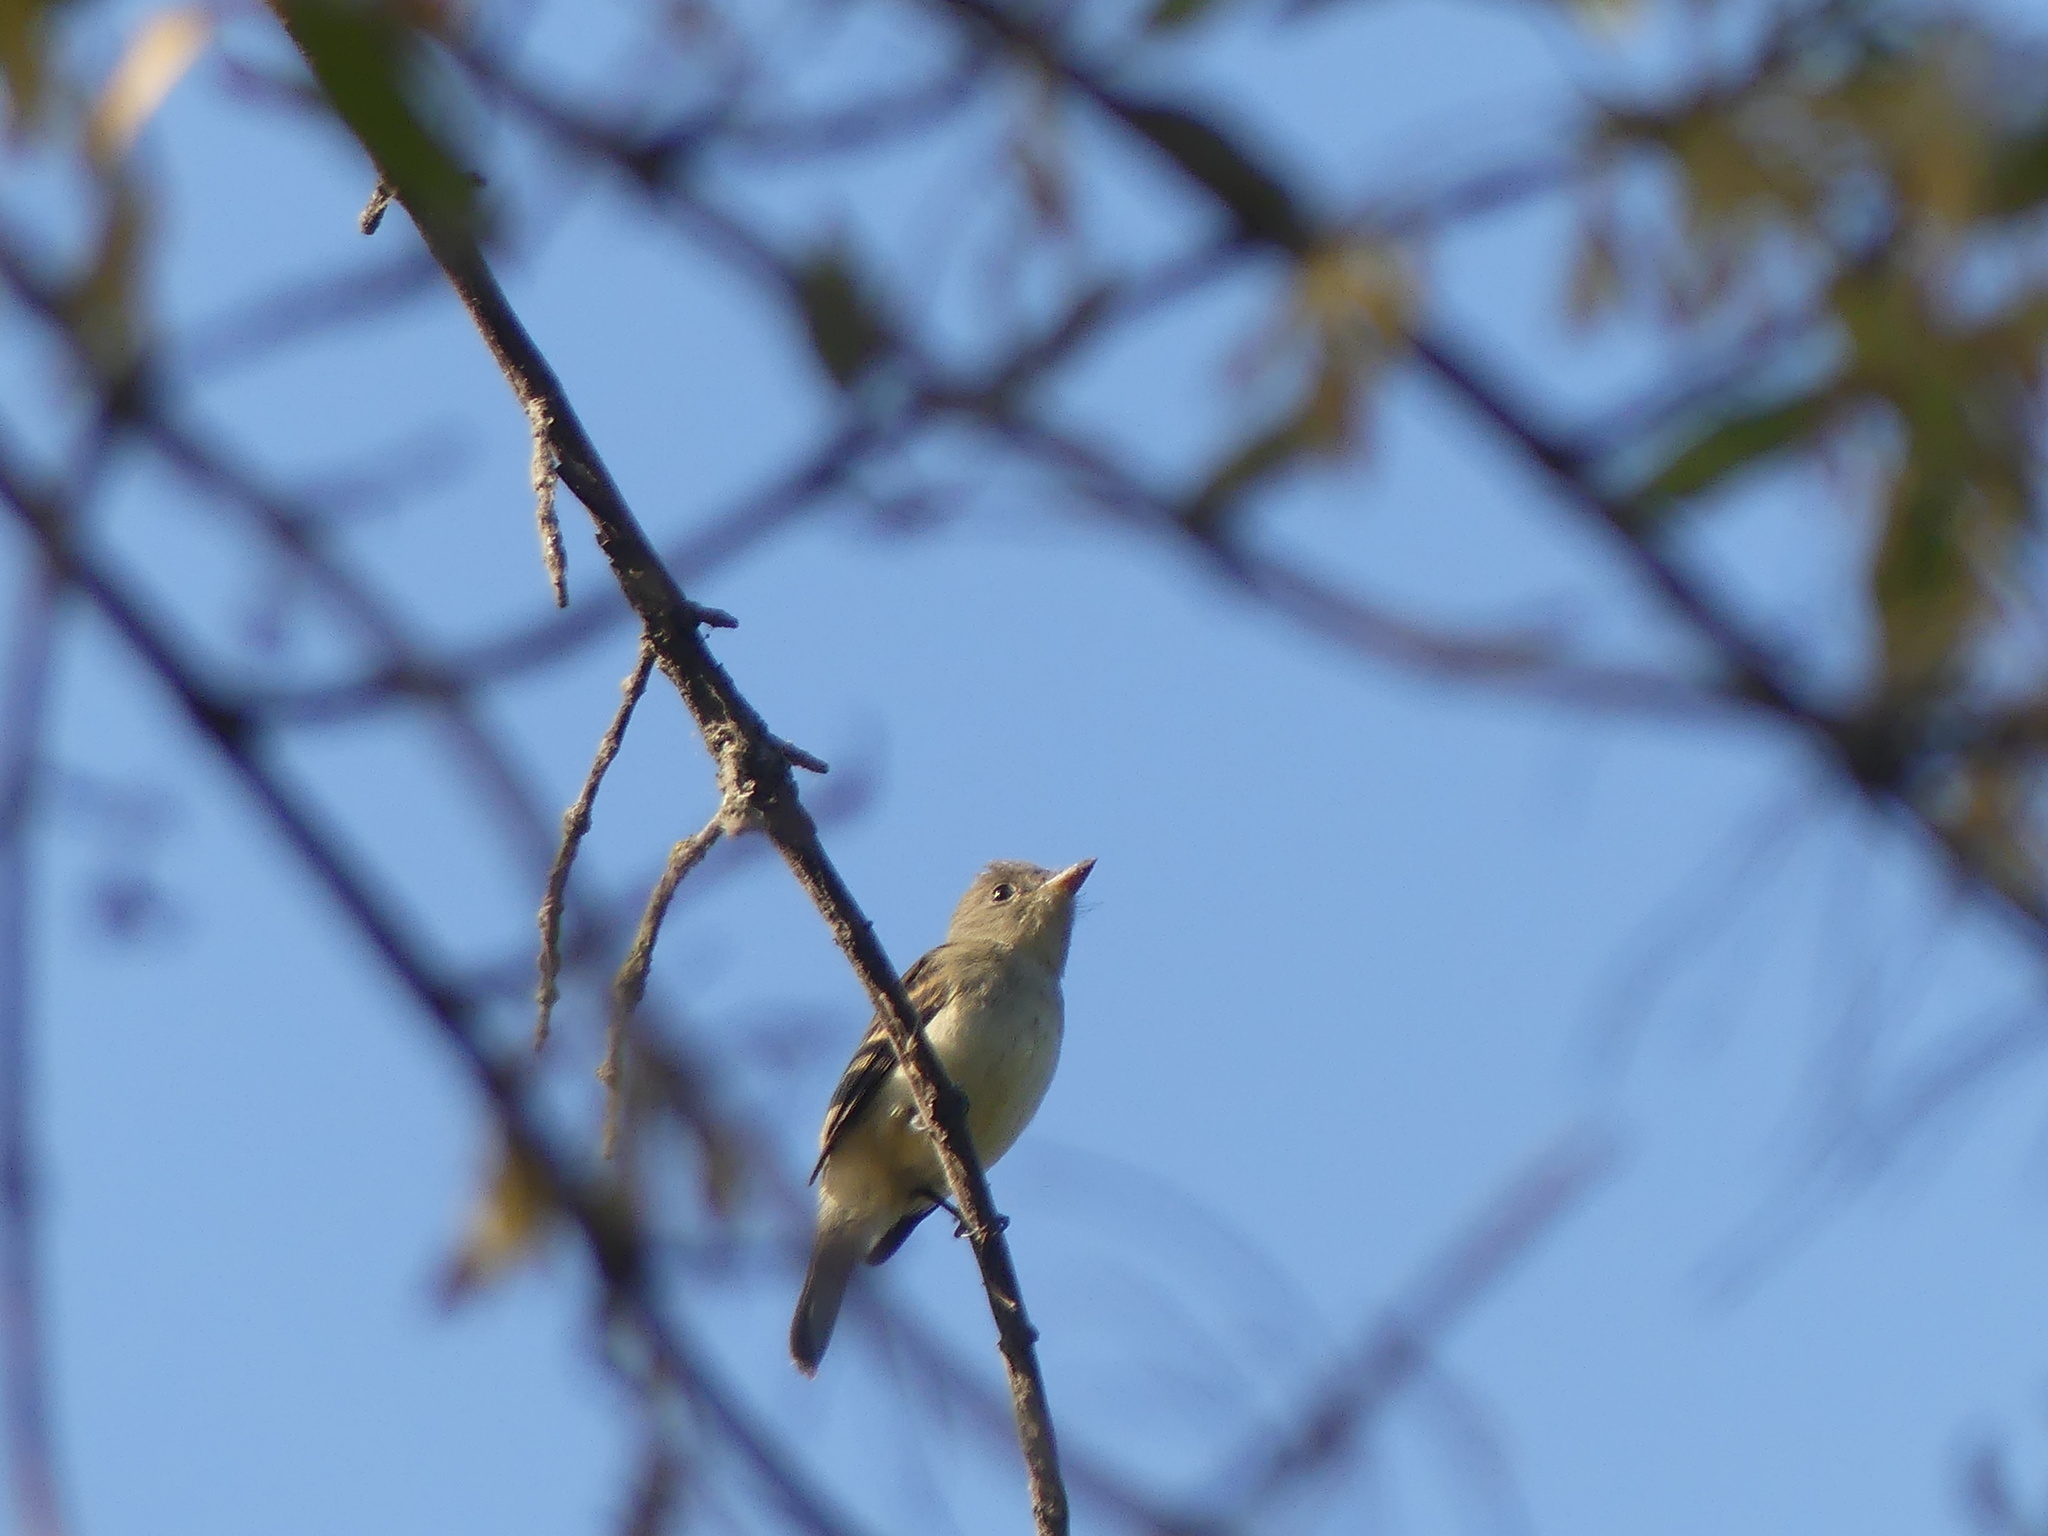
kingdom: Animalia
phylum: Chordata
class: Aves
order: Passeriformes
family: Tyrannidae
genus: Empidonax
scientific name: Empidonax traillii
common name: Willow flycatcher
